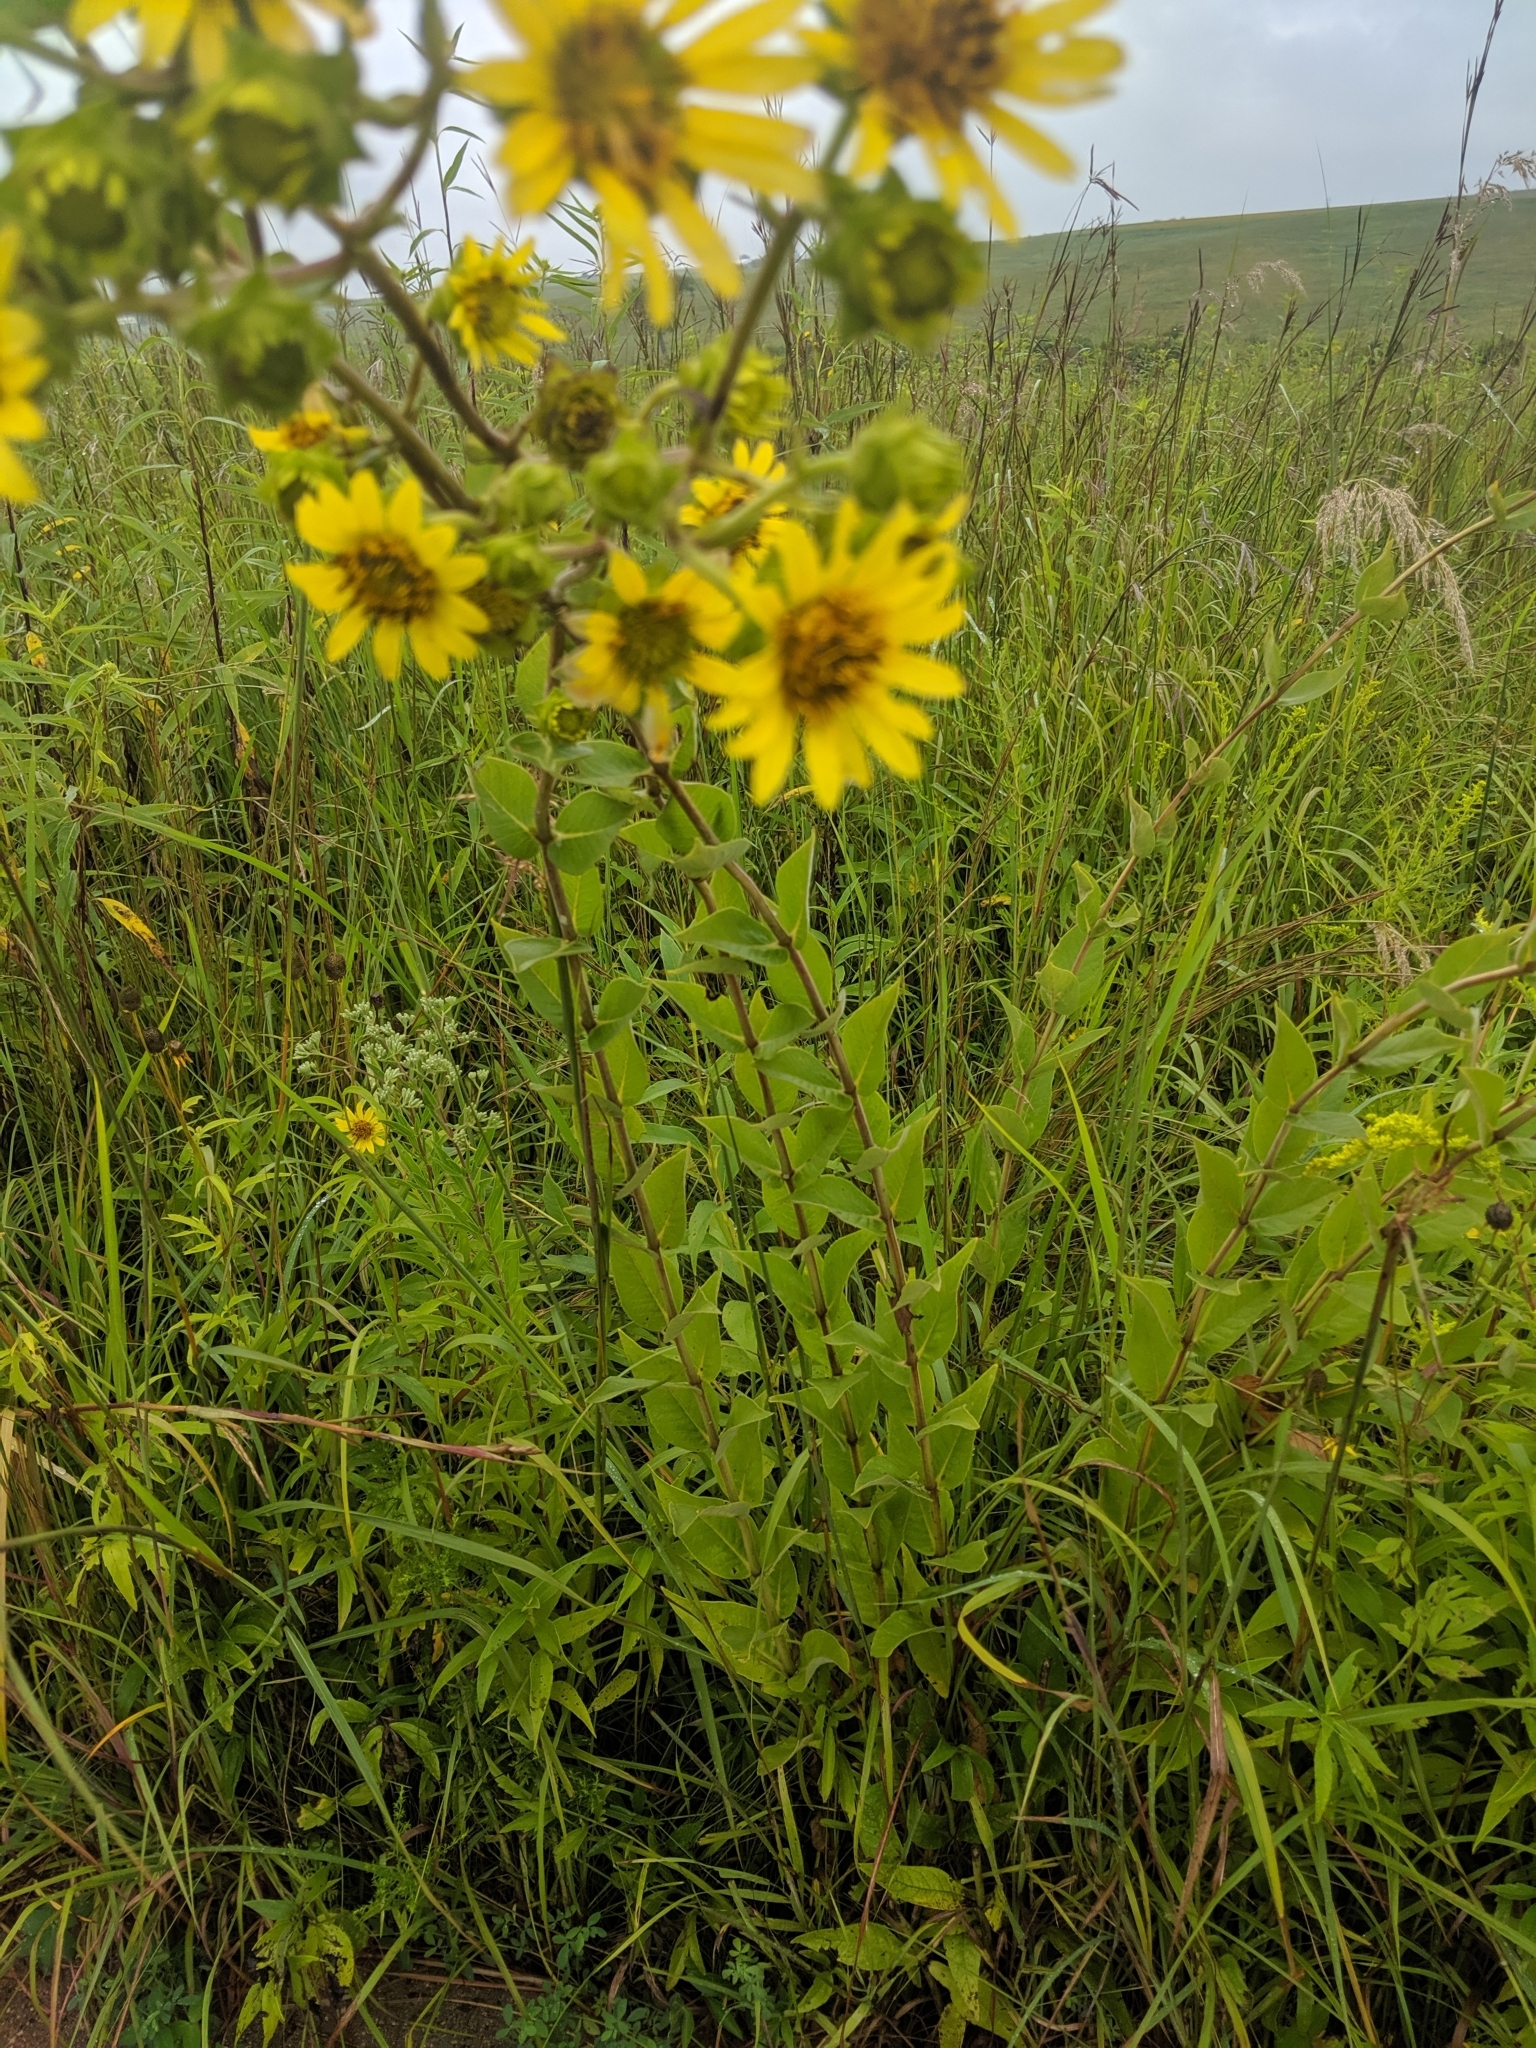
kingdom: Plantae
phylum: Tracheophyta
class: Magnoliopsida
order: Asterales
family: Asteraceae
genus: Silphium
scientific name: Silphium integrifolium
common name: Whole-leaf rosinweed
